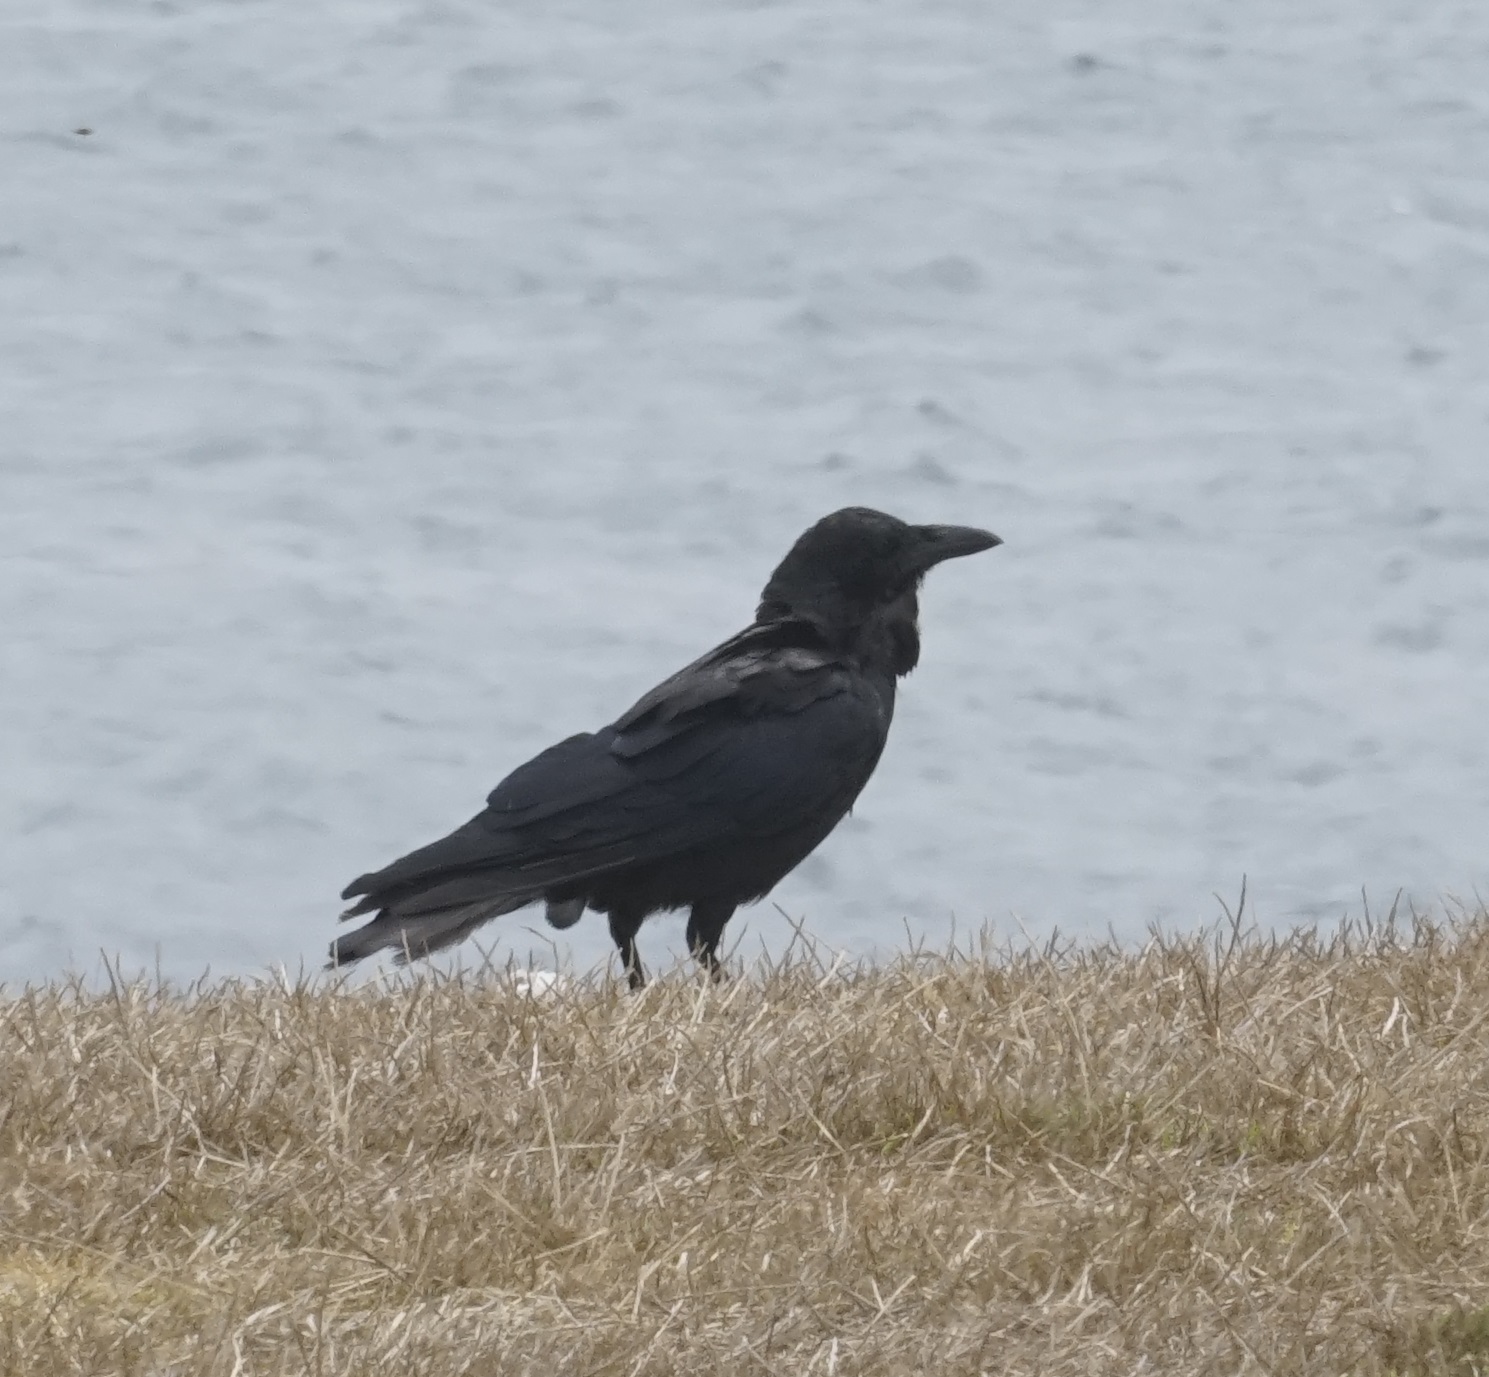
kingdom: Animalia
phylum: Chordata
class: Aves
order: Passeriformes
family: Corvidae
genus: Corvus
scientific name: Corvus coronoides
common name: Australian raven
